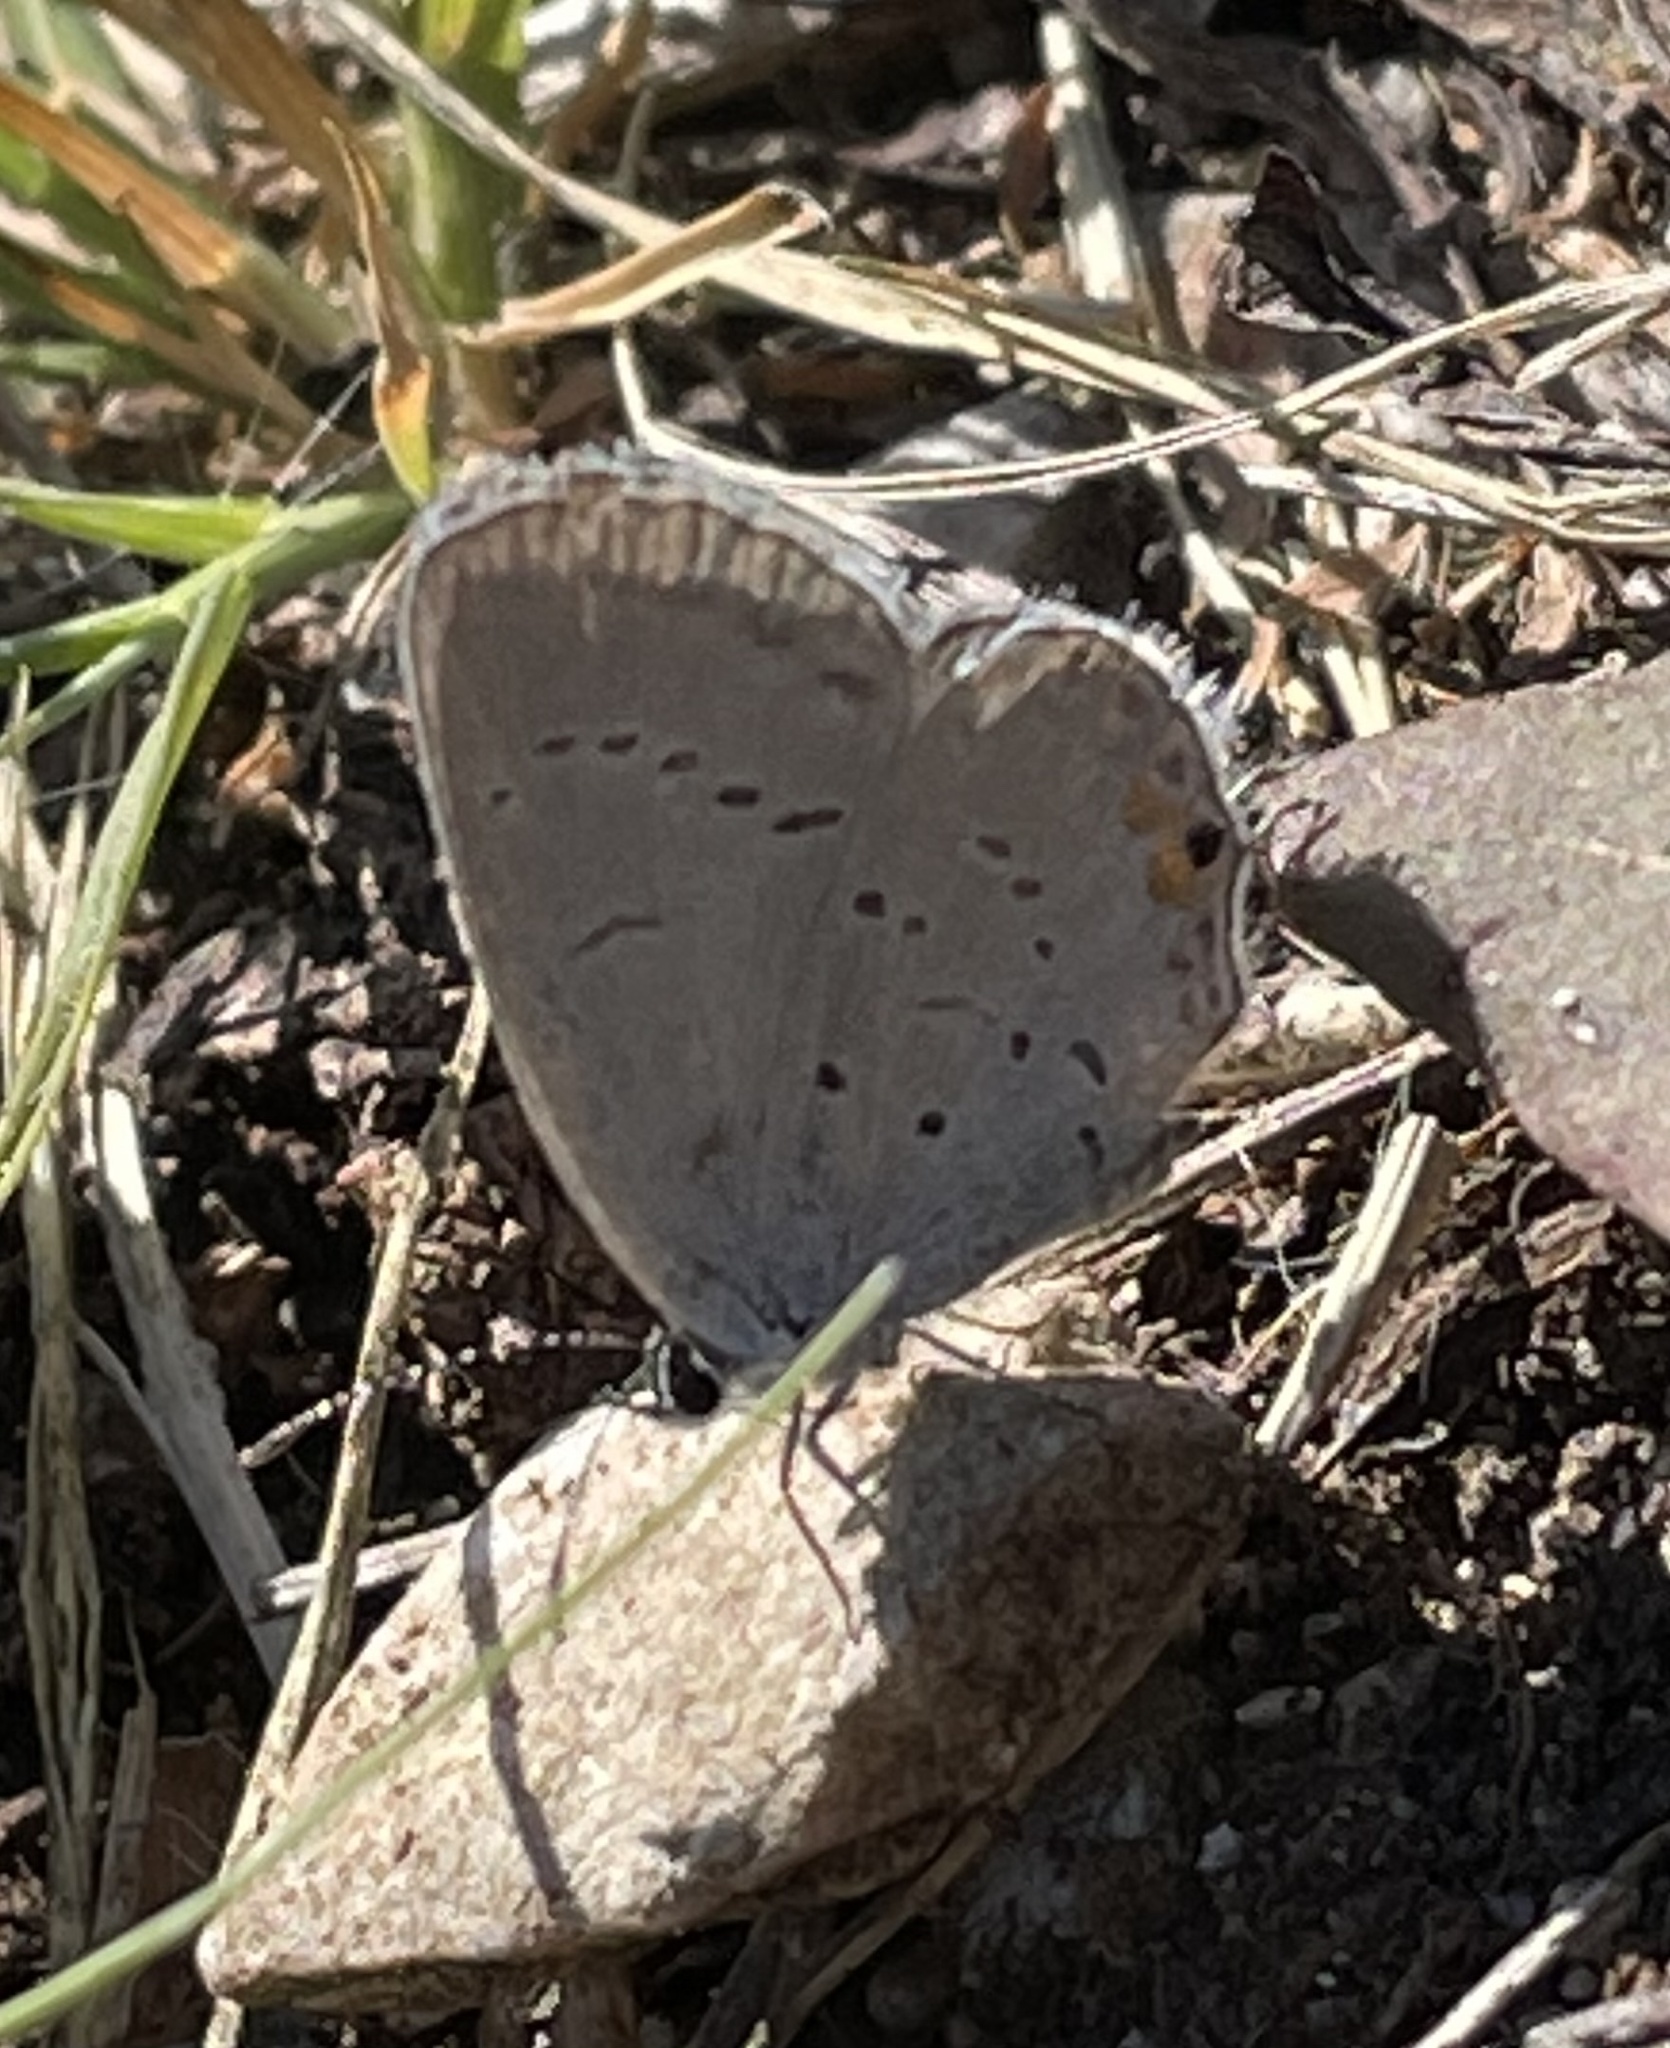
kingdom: Animalia
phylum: Arthropoda
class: Insecta
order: Lepidoptera
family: Lycaenidae
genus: Elkalyce
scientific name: Elkalyce comyntas
